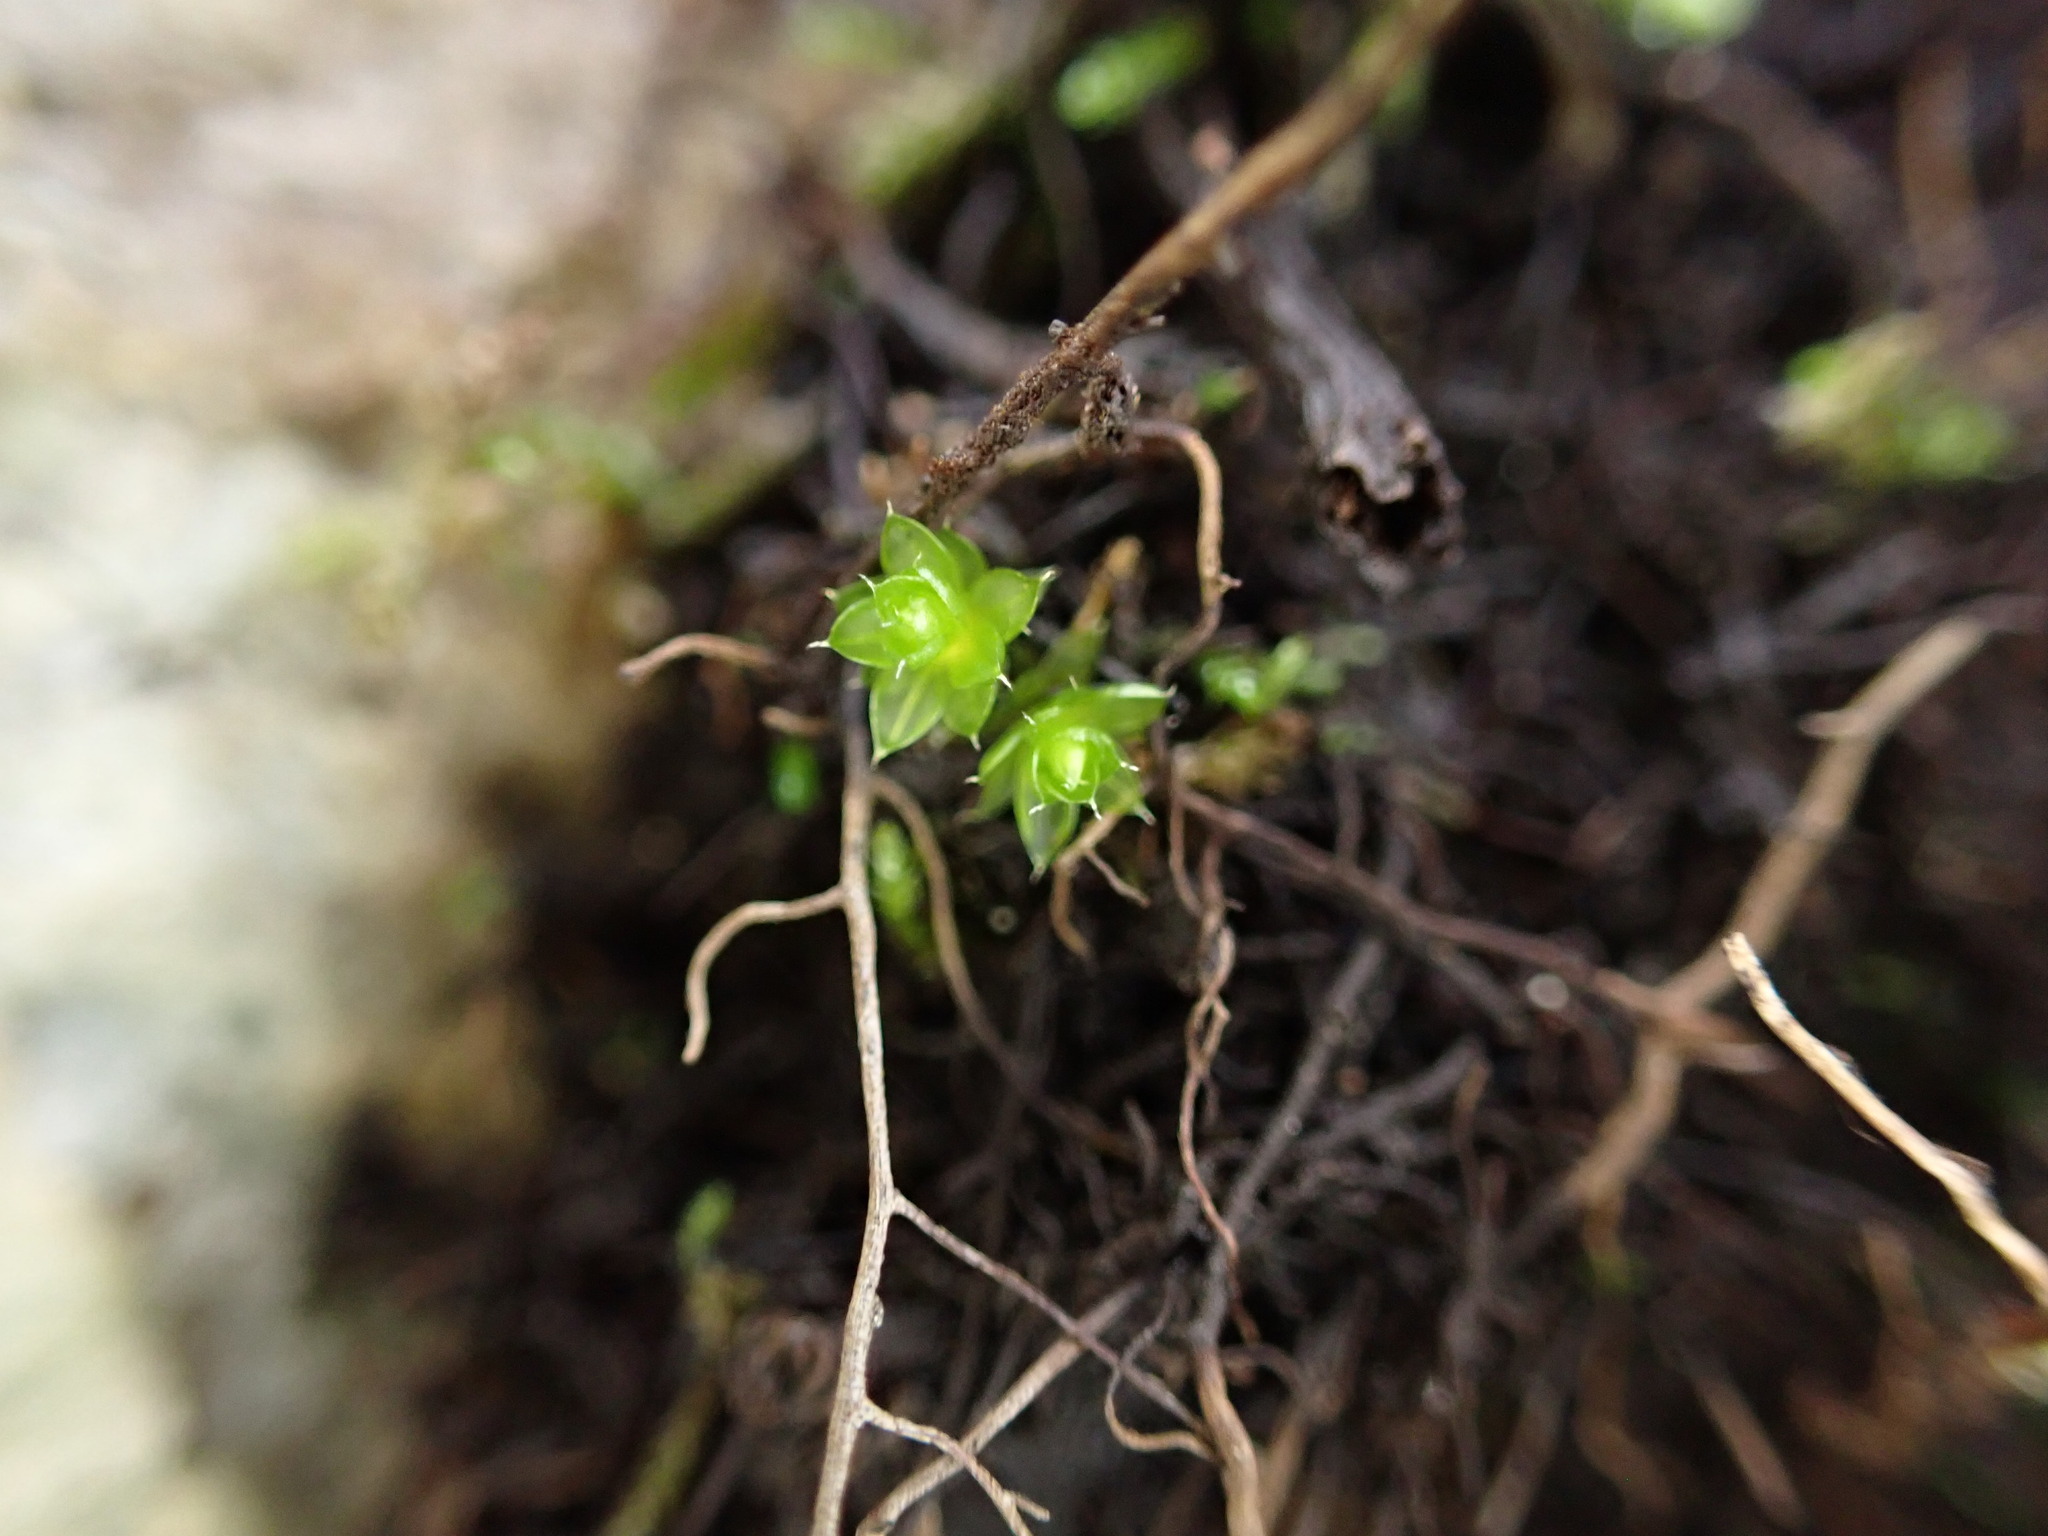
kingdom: Plantae
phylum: Bryophyta
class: Bryopsida
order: Bryales
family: Bryaceae
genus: Rosulabryum
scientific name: Rosulabryum capillare
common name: Capillary thread-moss
